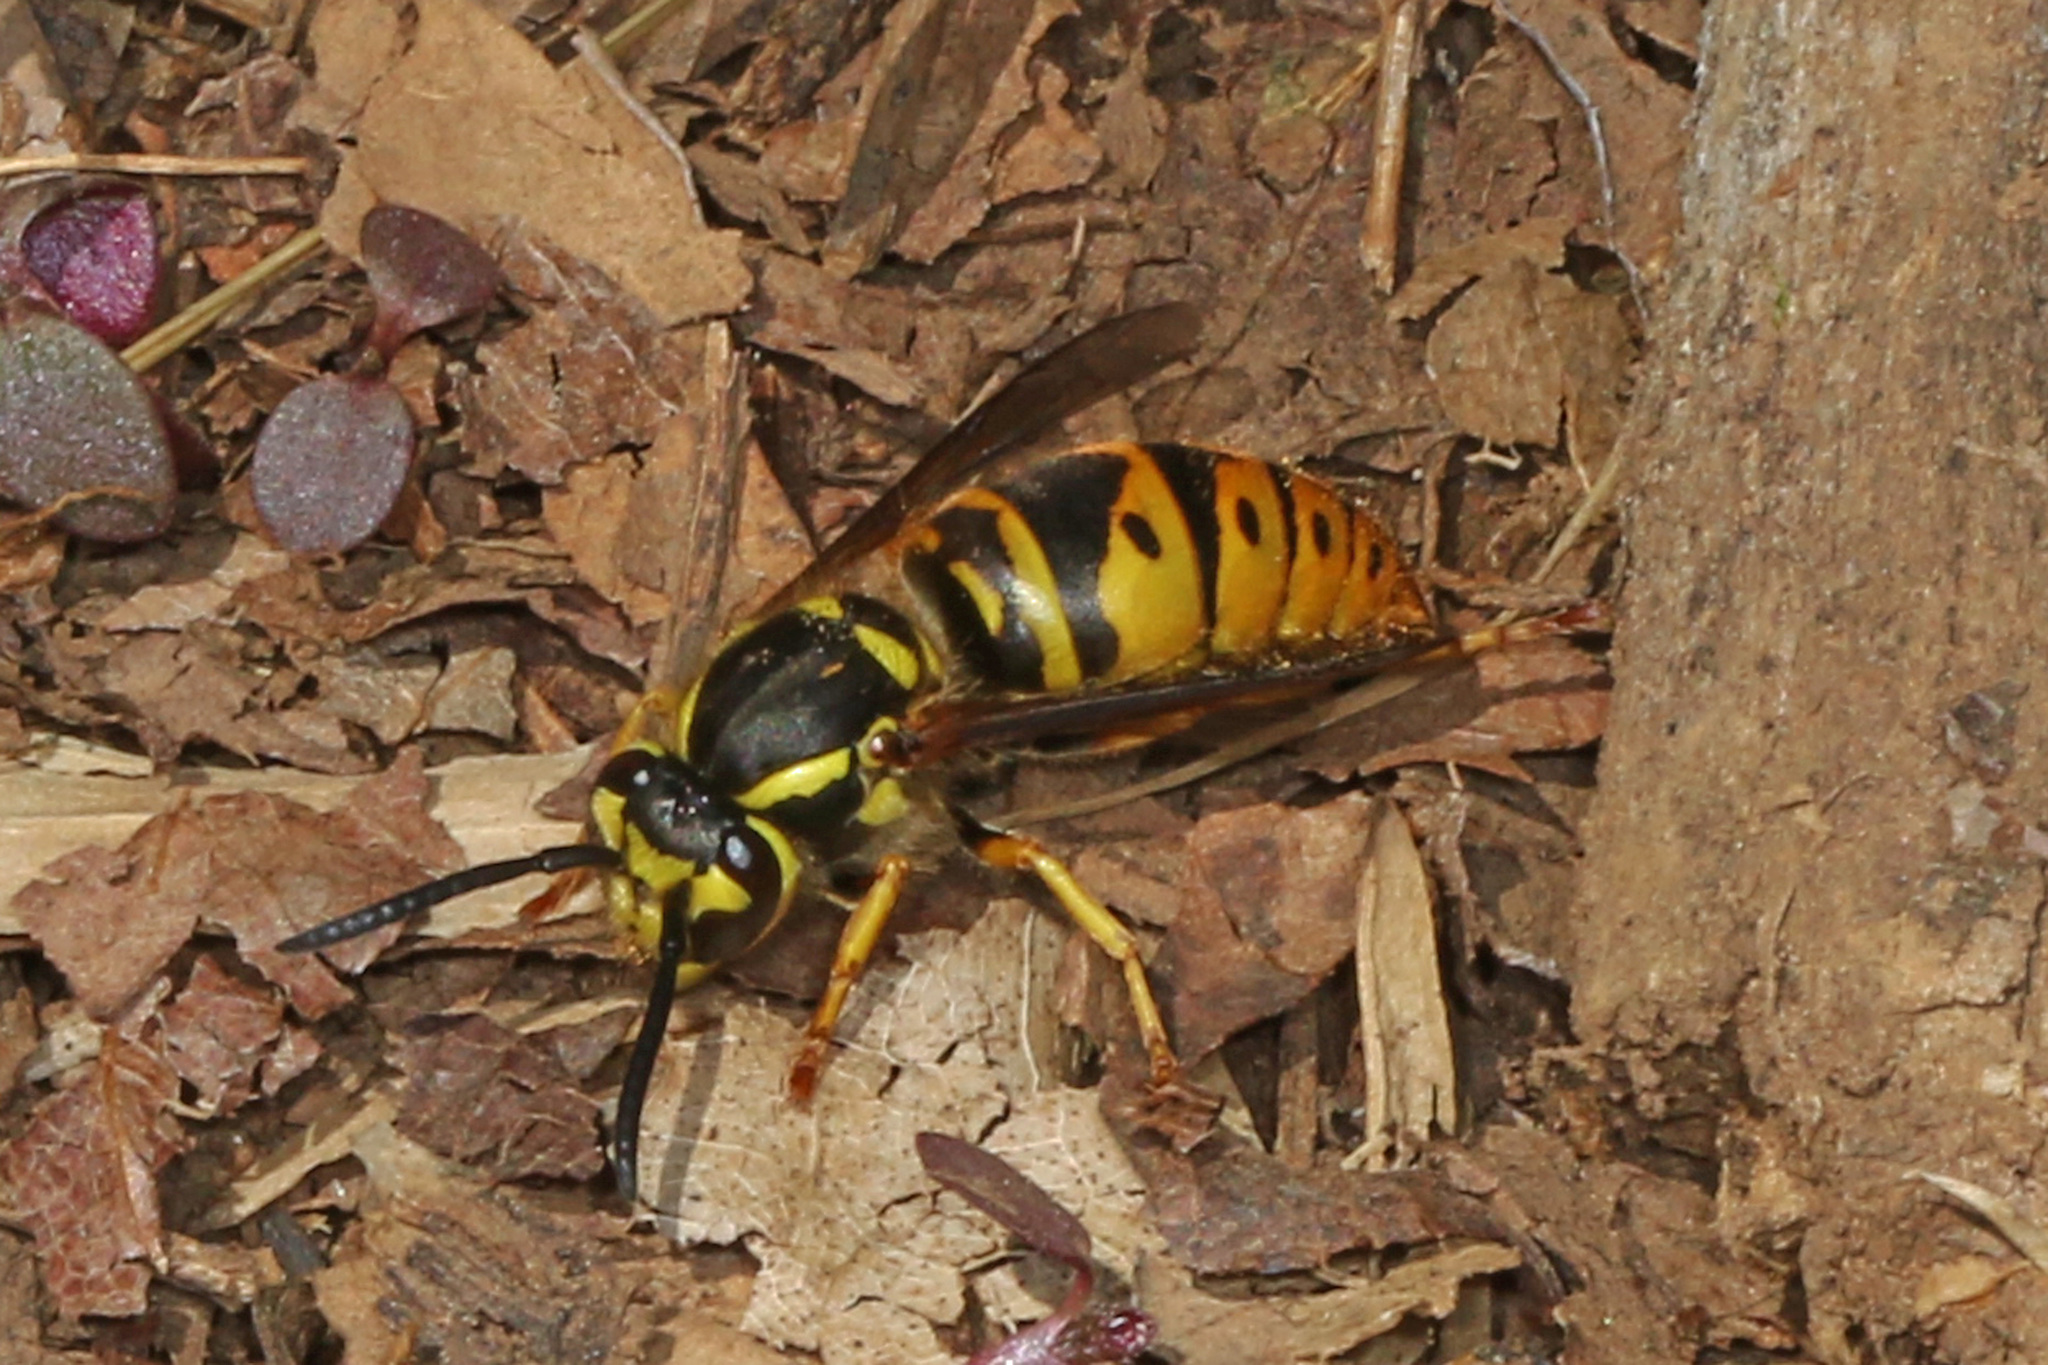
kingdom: Animalia
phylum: Arthropoda
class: Insecta
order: Hymenoptera
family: Vespidae
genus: Vespula
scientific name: Vespula maculifrons
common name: Eastern yellowjacket
